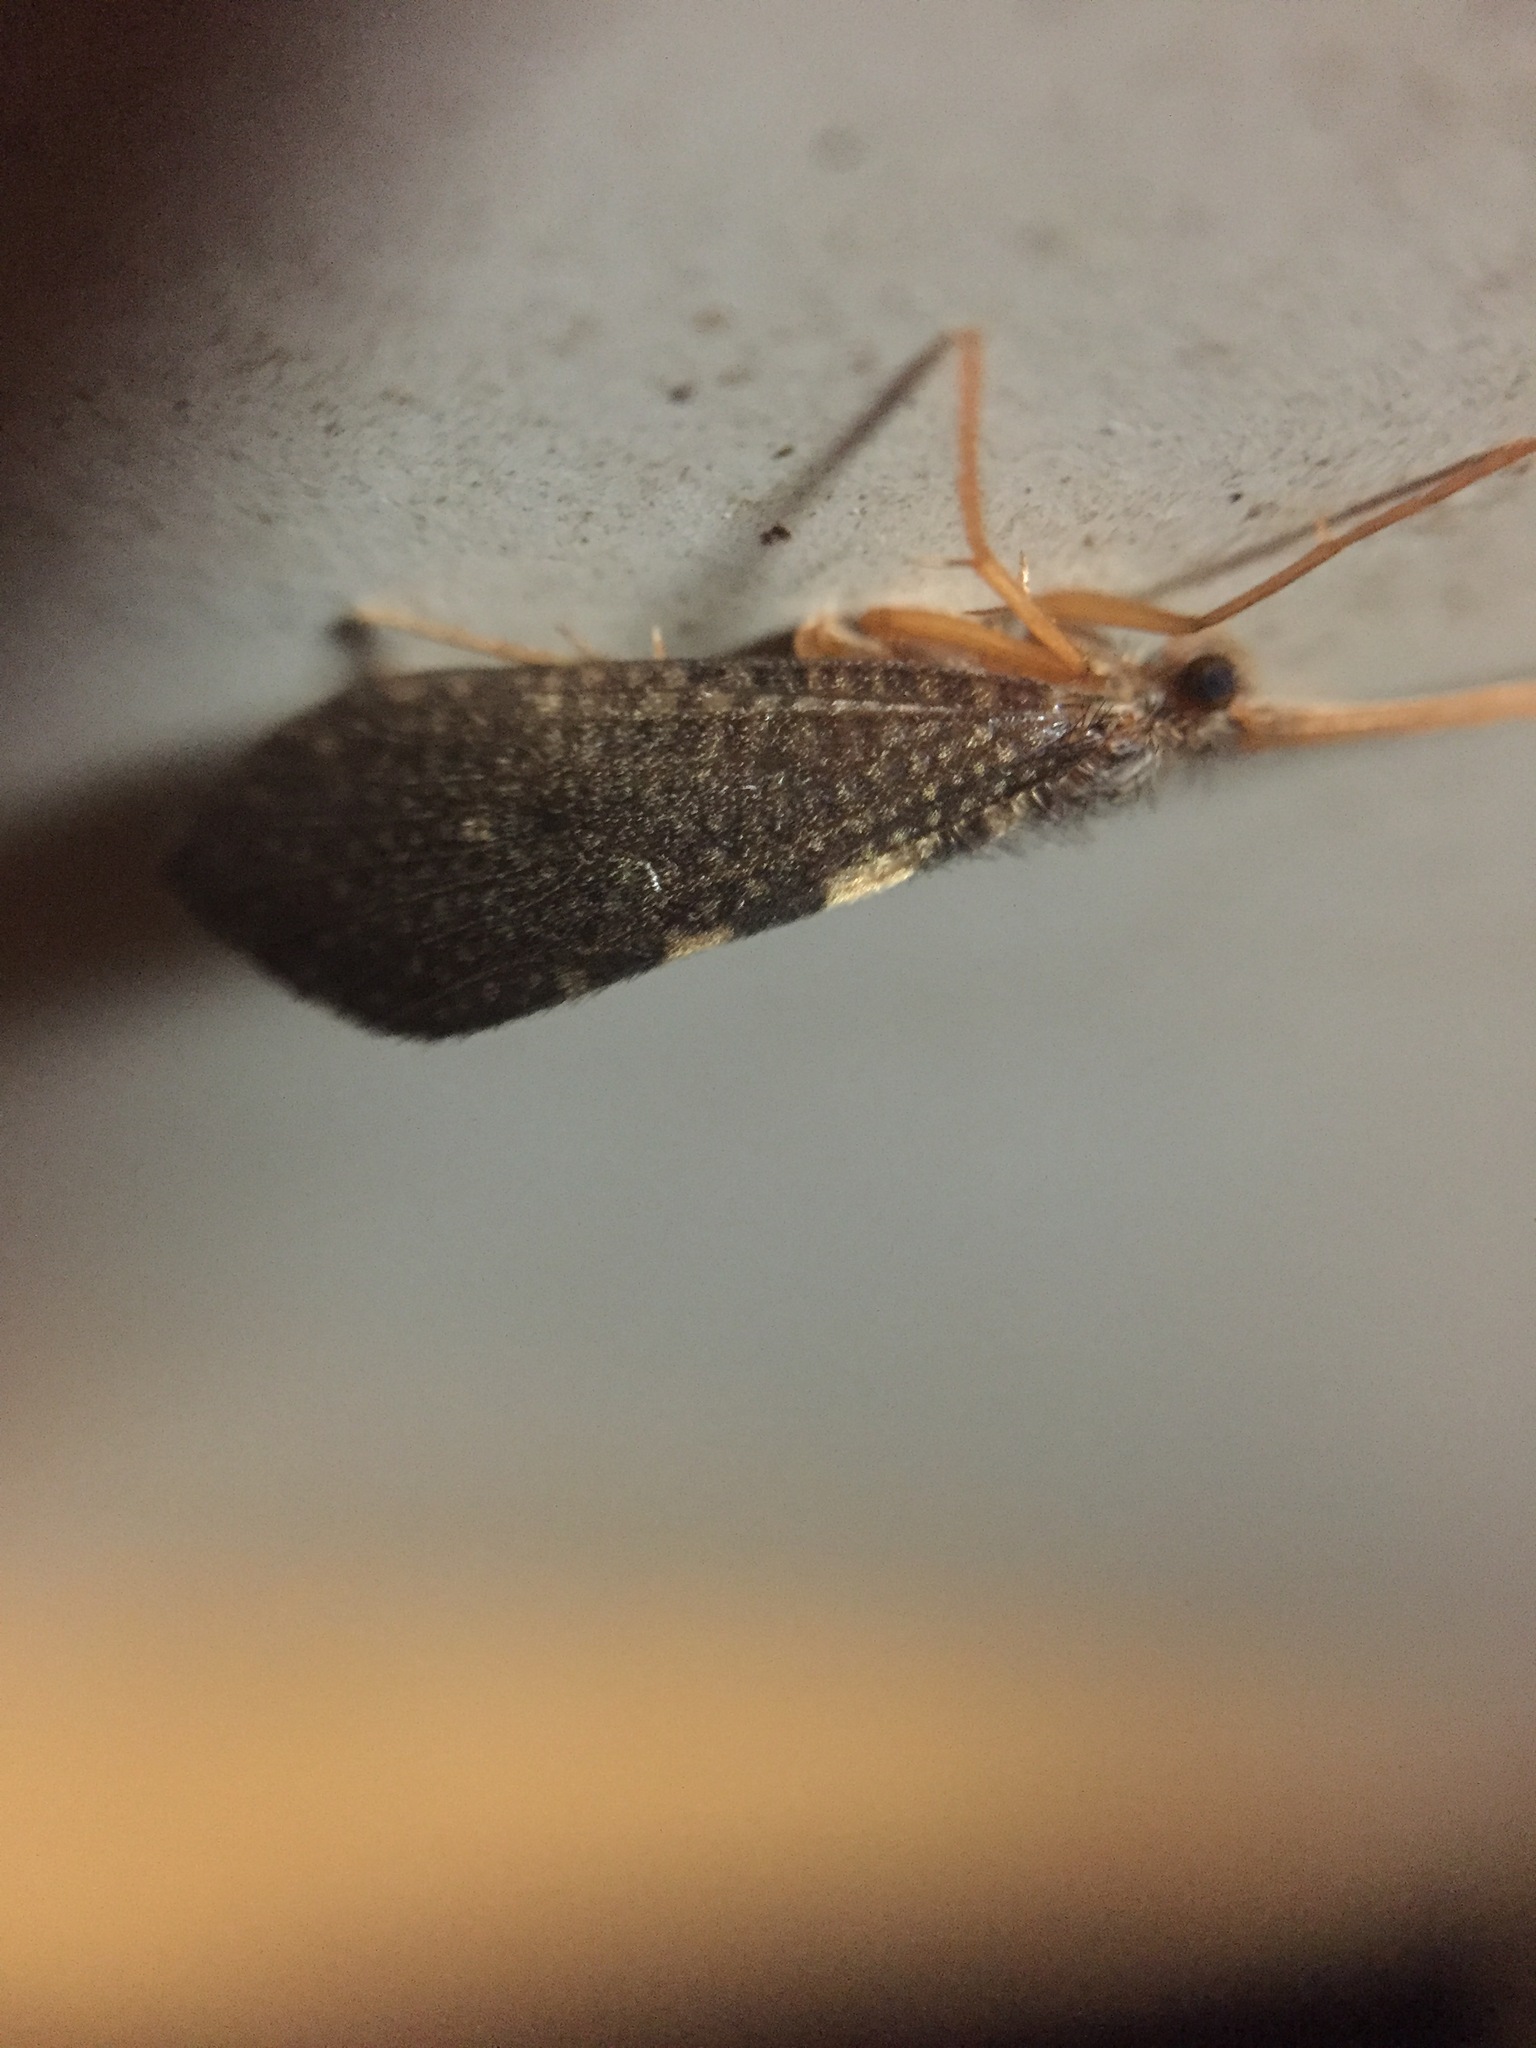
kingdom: Animalia
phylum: Arthropoda
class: Insecta
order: Trichoptera
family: Oeconesidae
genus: Pseudoeconesus
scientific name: Pseudoeconesus bistirpis
